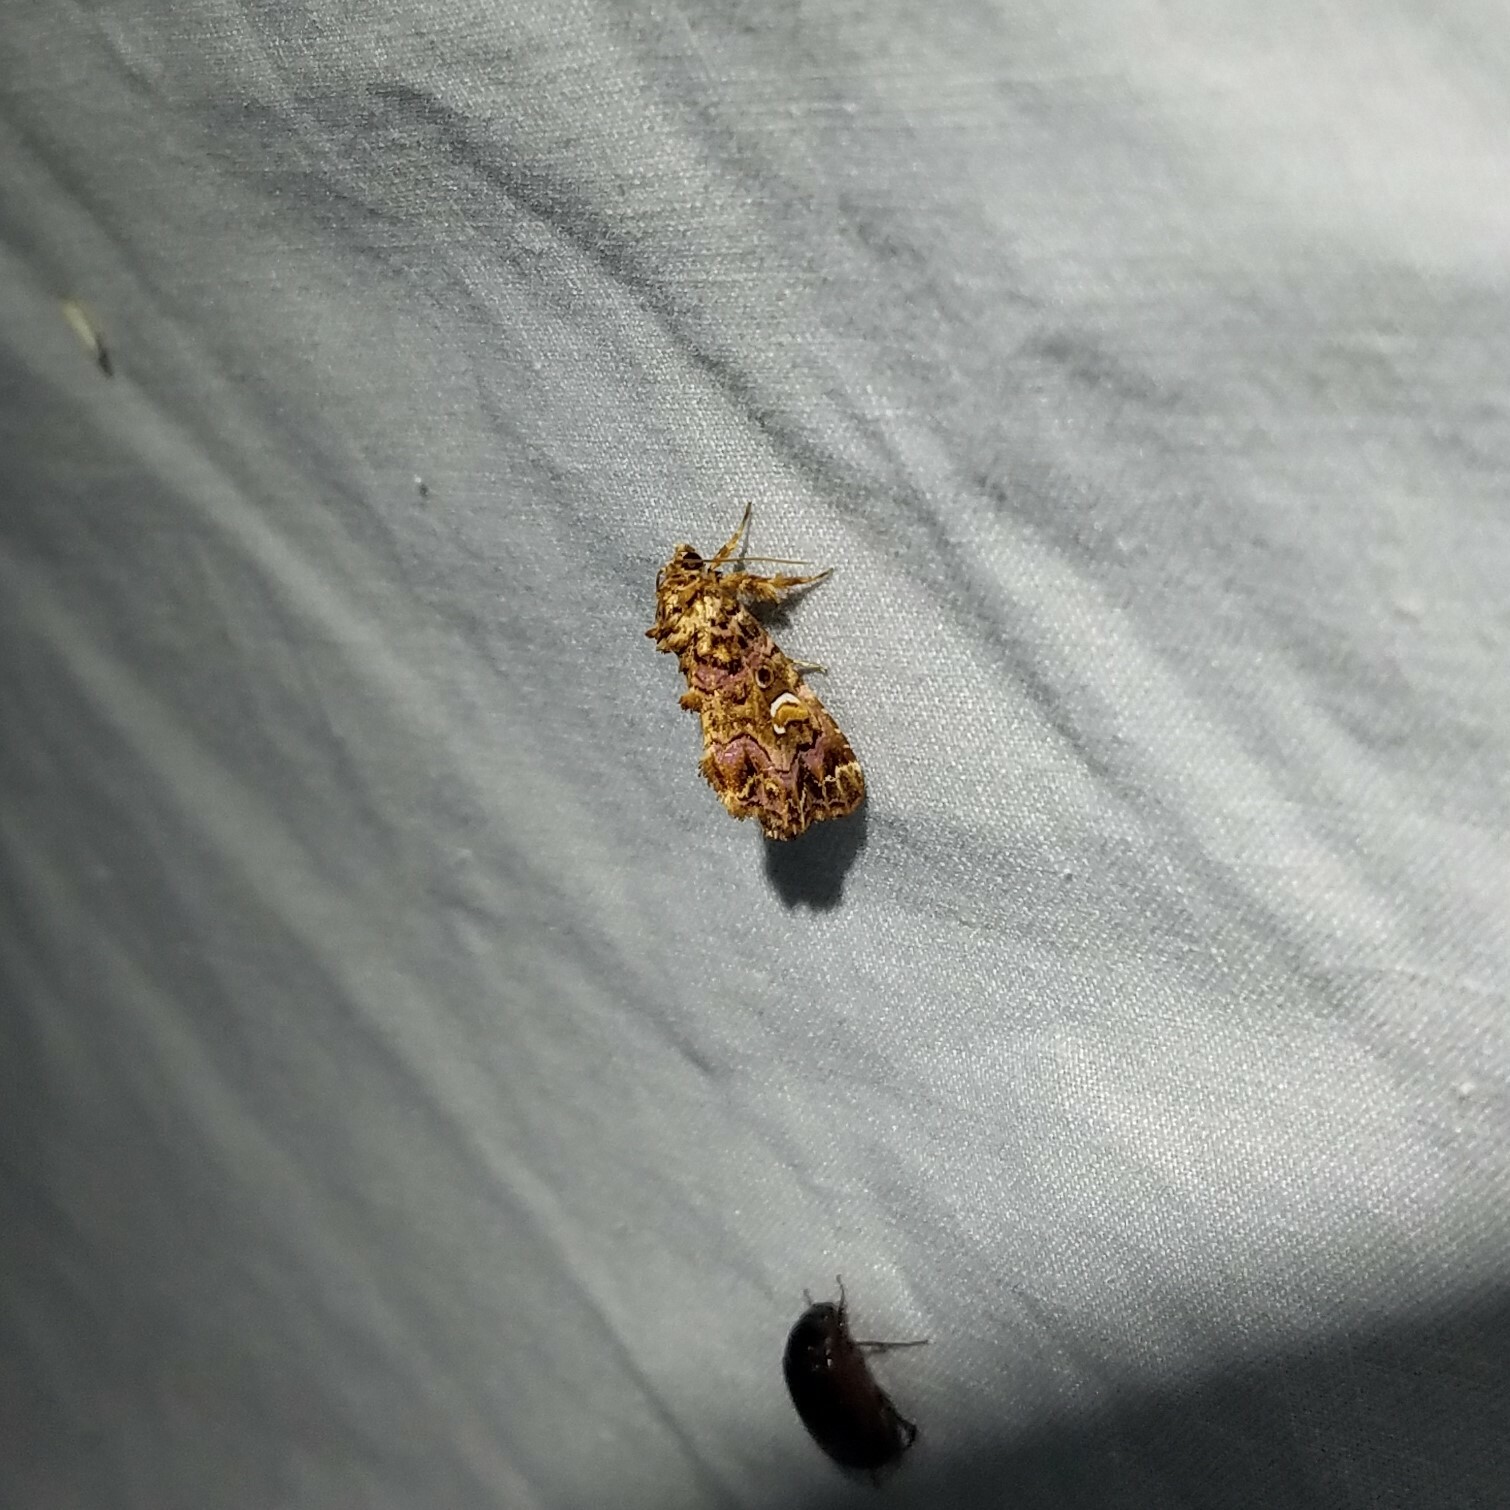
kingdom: Animalia
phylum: Arthropoda
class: Insecta
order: Lepidoptera
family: Noctuidae
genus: Callopistria
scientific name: Callopistria mollissima
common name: Pink-shaded fern moth
